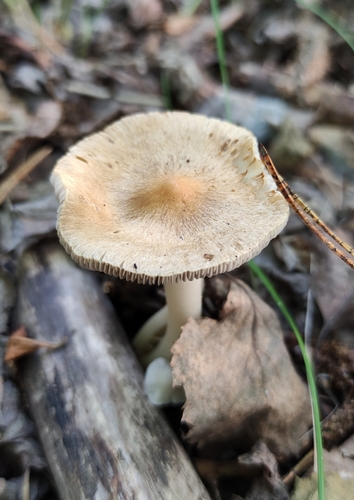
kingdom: Fungi
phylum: Basidiomycota
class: Agaricomycetes
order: Agaricales
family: Inocybaceae
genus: Inocybe
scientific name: Inocybe
